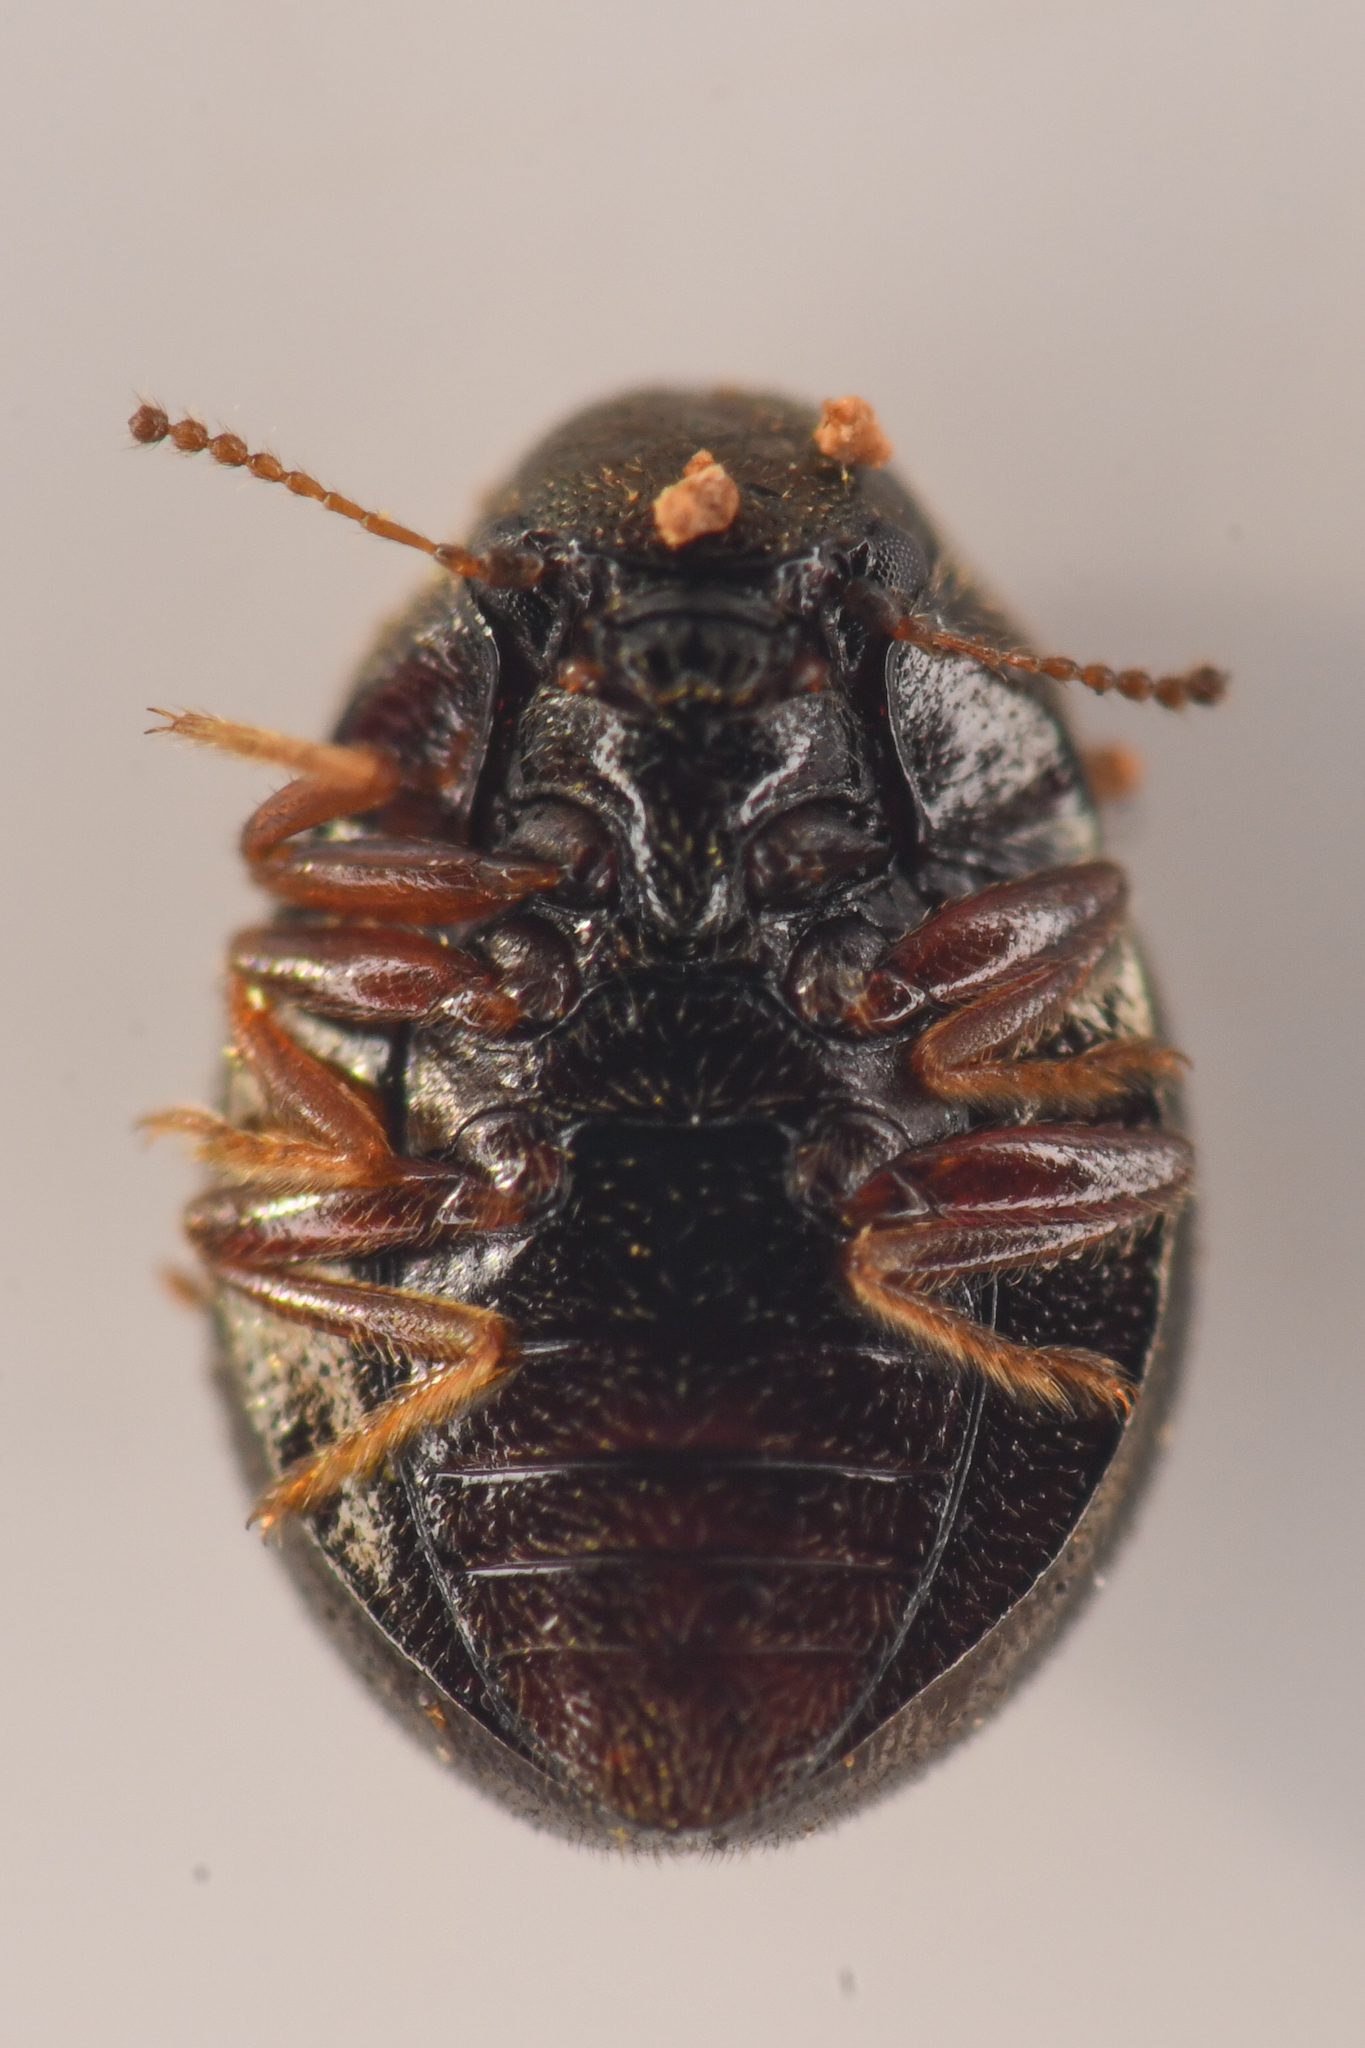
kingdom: Animalia
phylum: Arthropoda
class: Insecta
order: Coleoptera
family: Byrrhidae
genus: Lioon
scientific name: Lioon simplicipes
